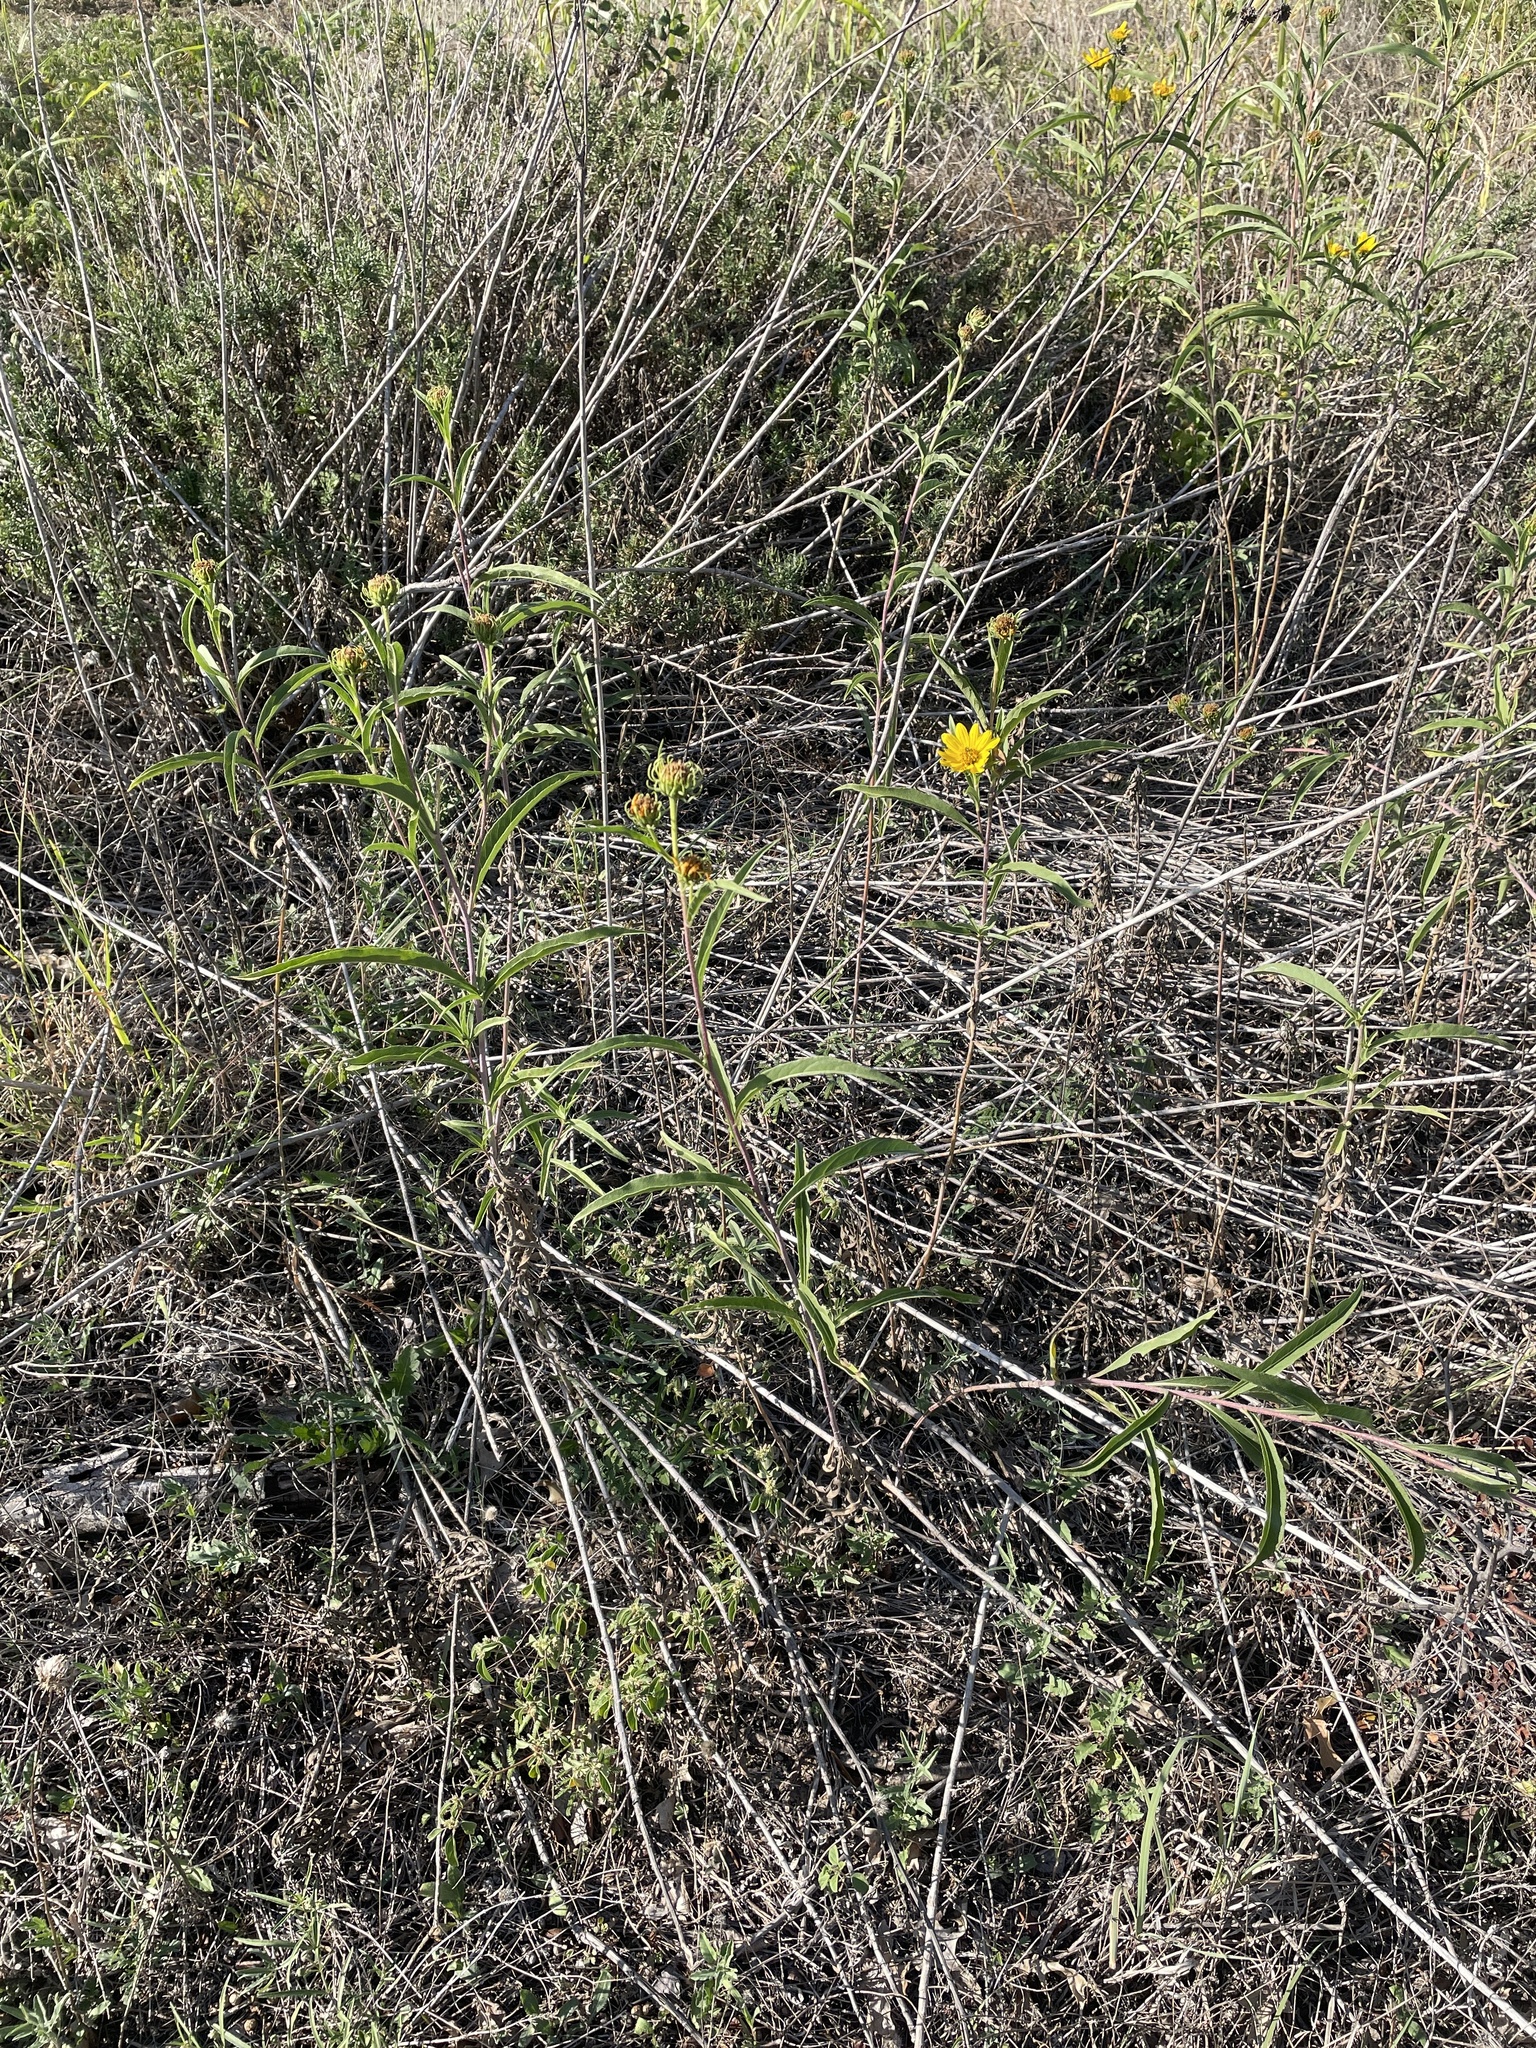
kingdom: Plantae
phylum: Tracheophyta
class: Magnoliopsida
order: Asterales
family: Asteraceae
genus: Helianthus
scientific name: Helianthus maximiliani
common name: Maximilian's sunflower
